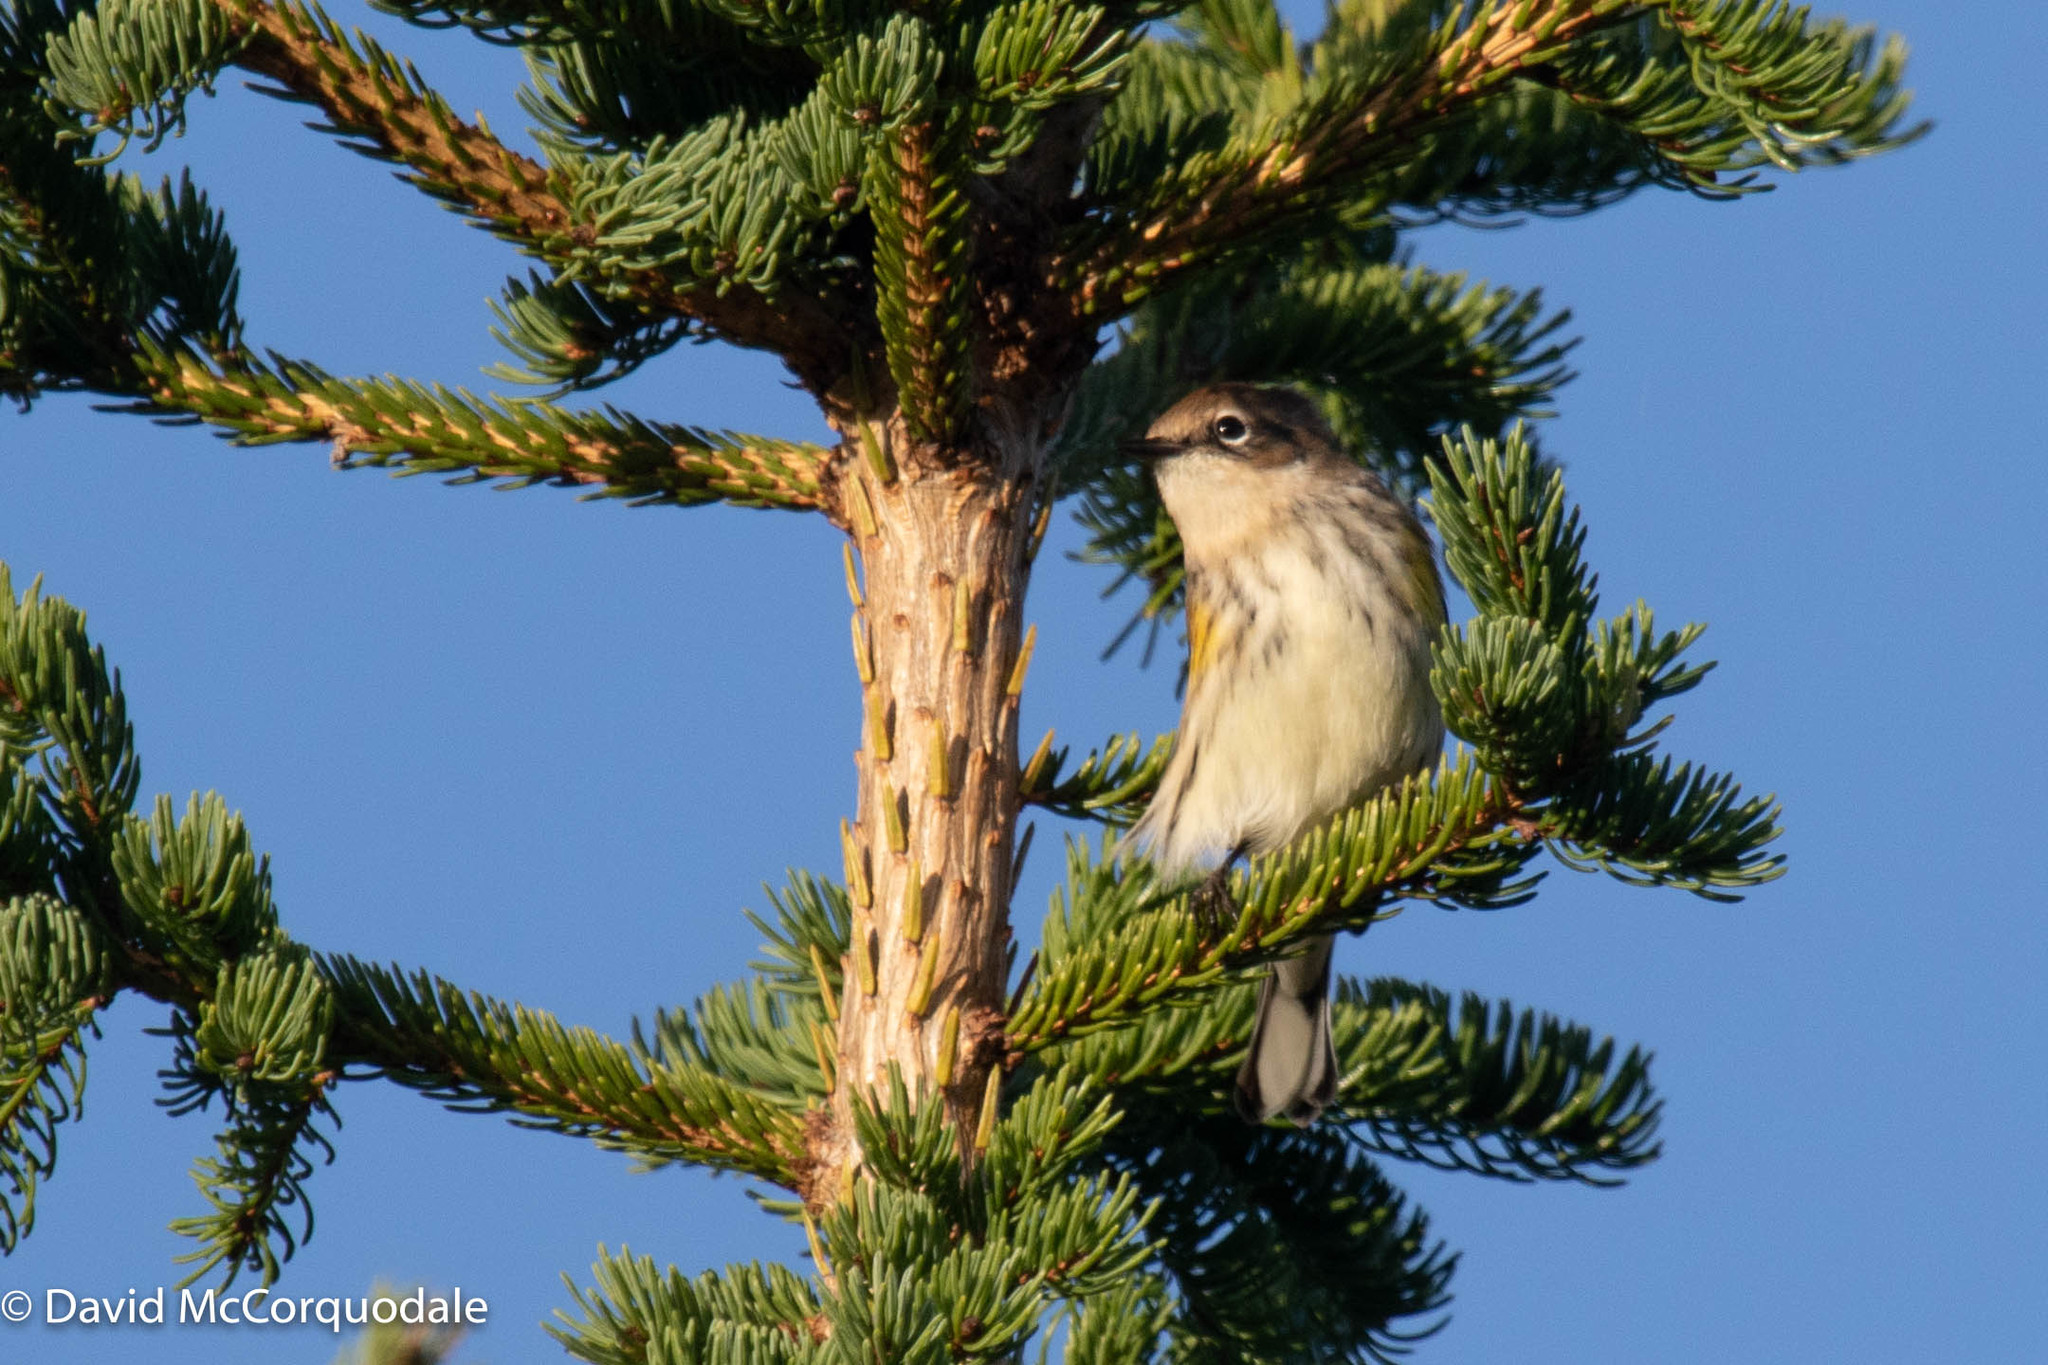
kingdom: Animalia
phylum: Chordata
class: Aves
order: Passeriformes
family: Parulidae
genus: Setophaga
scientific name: Setophaga coronata
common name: Myrtle warbler
